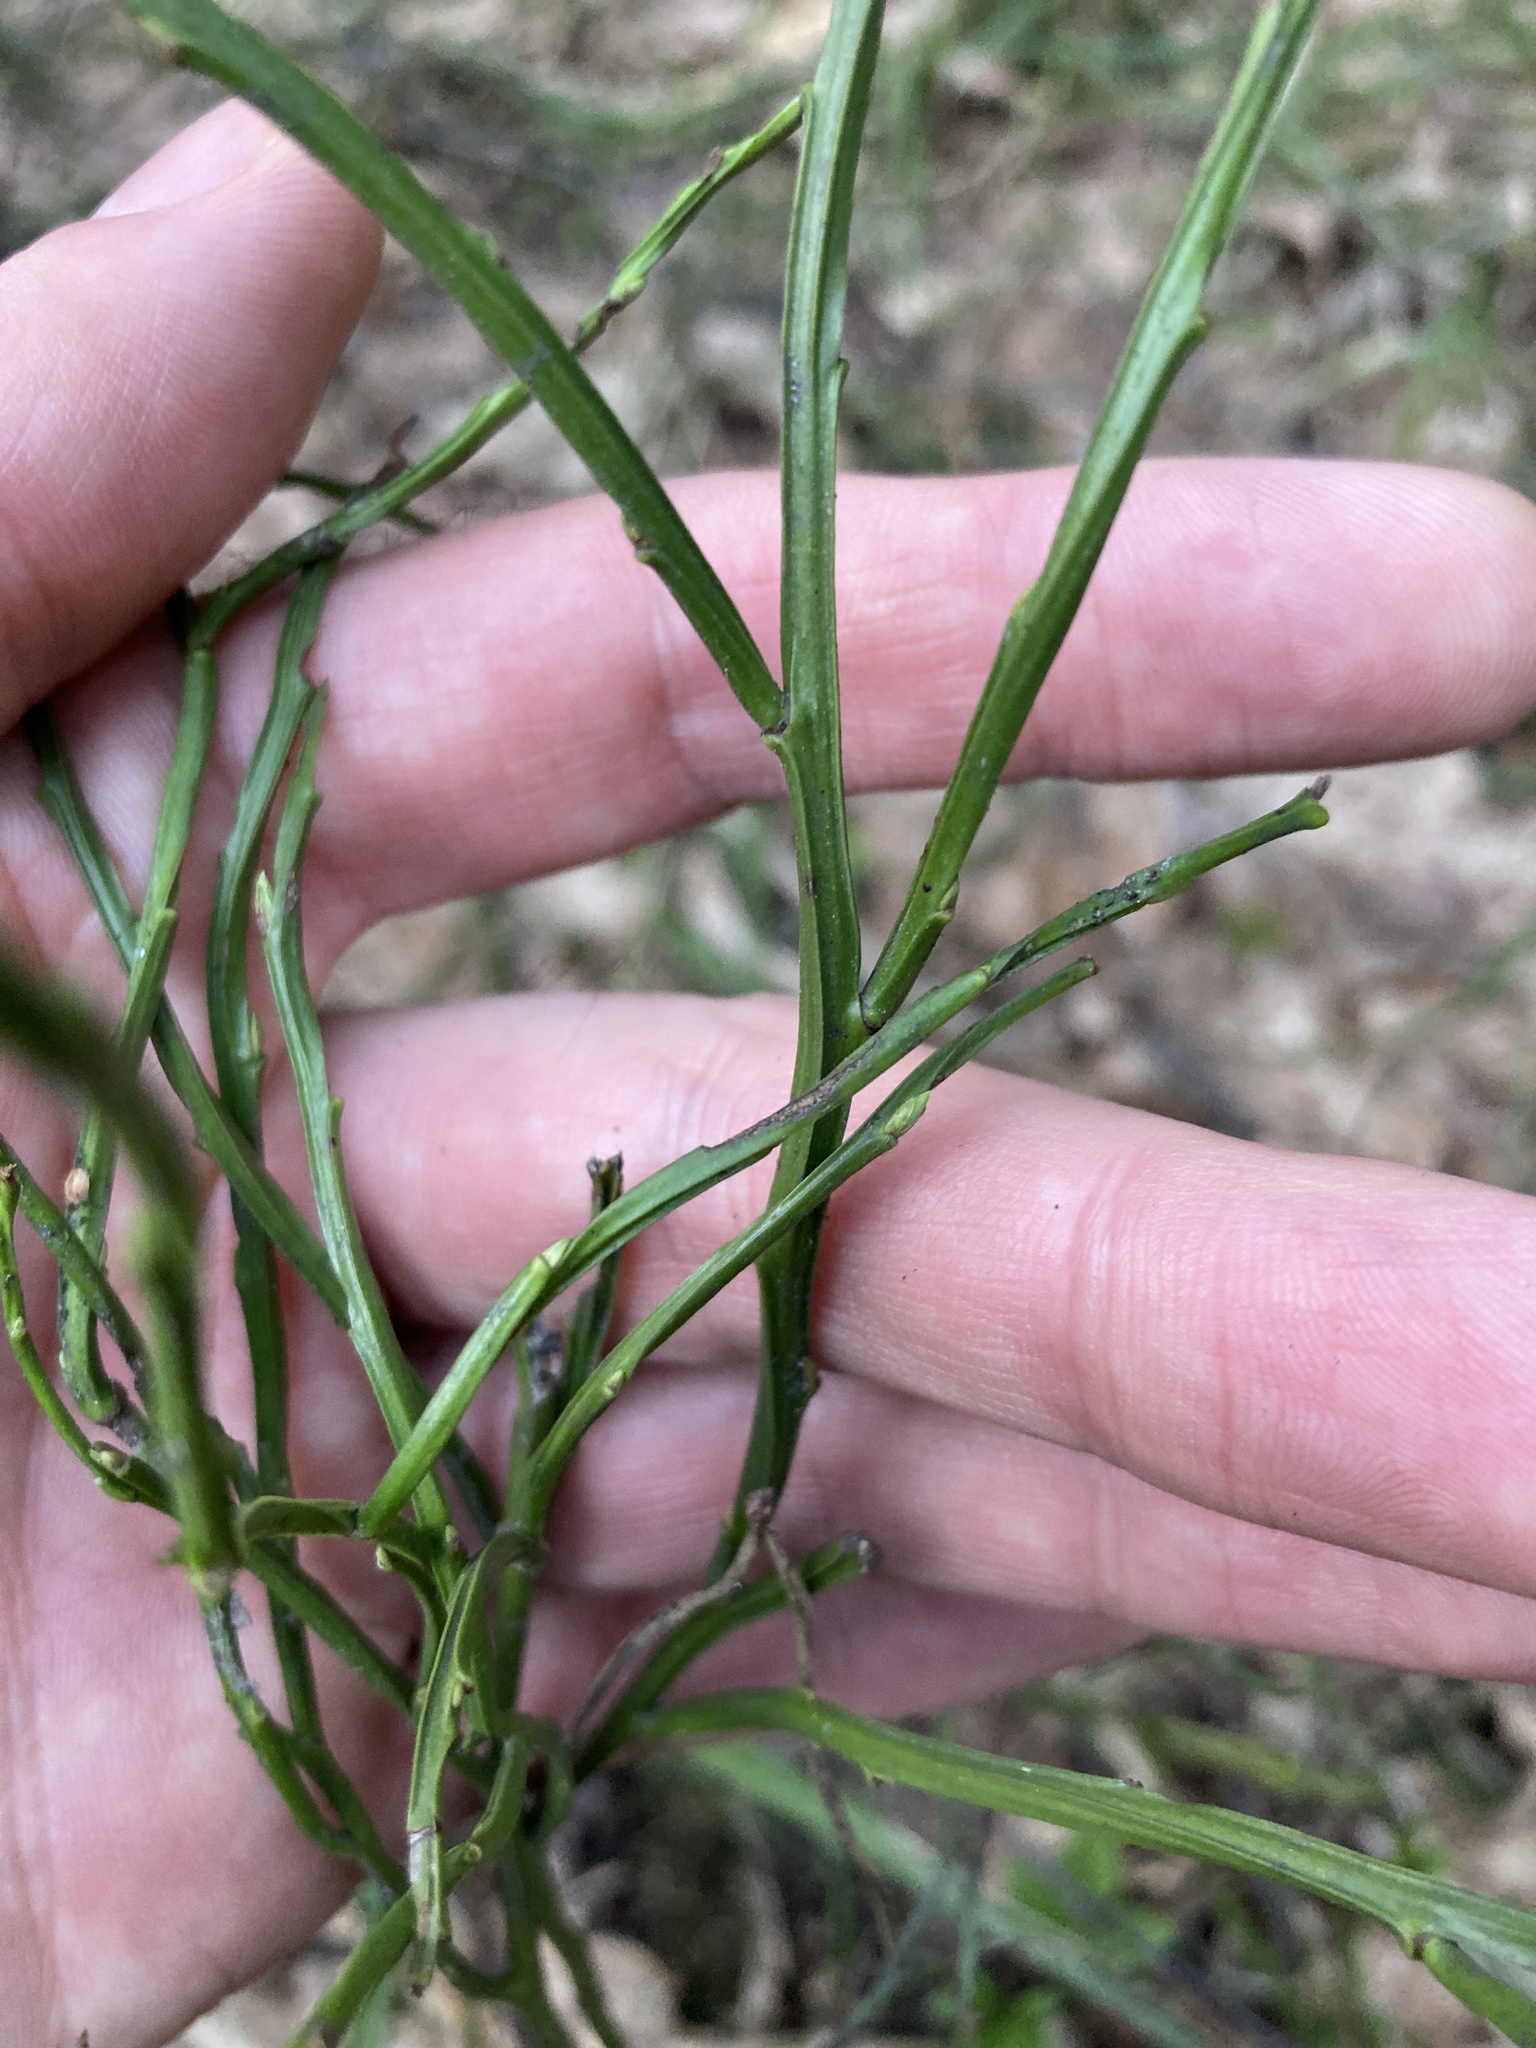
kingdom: Plantae
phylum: Tracheophyta
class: Magnoliopsida
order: Ericales
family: Ericaceae
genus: Vaccinium
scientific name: Vaccinium myrtillus
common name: Bilberry
